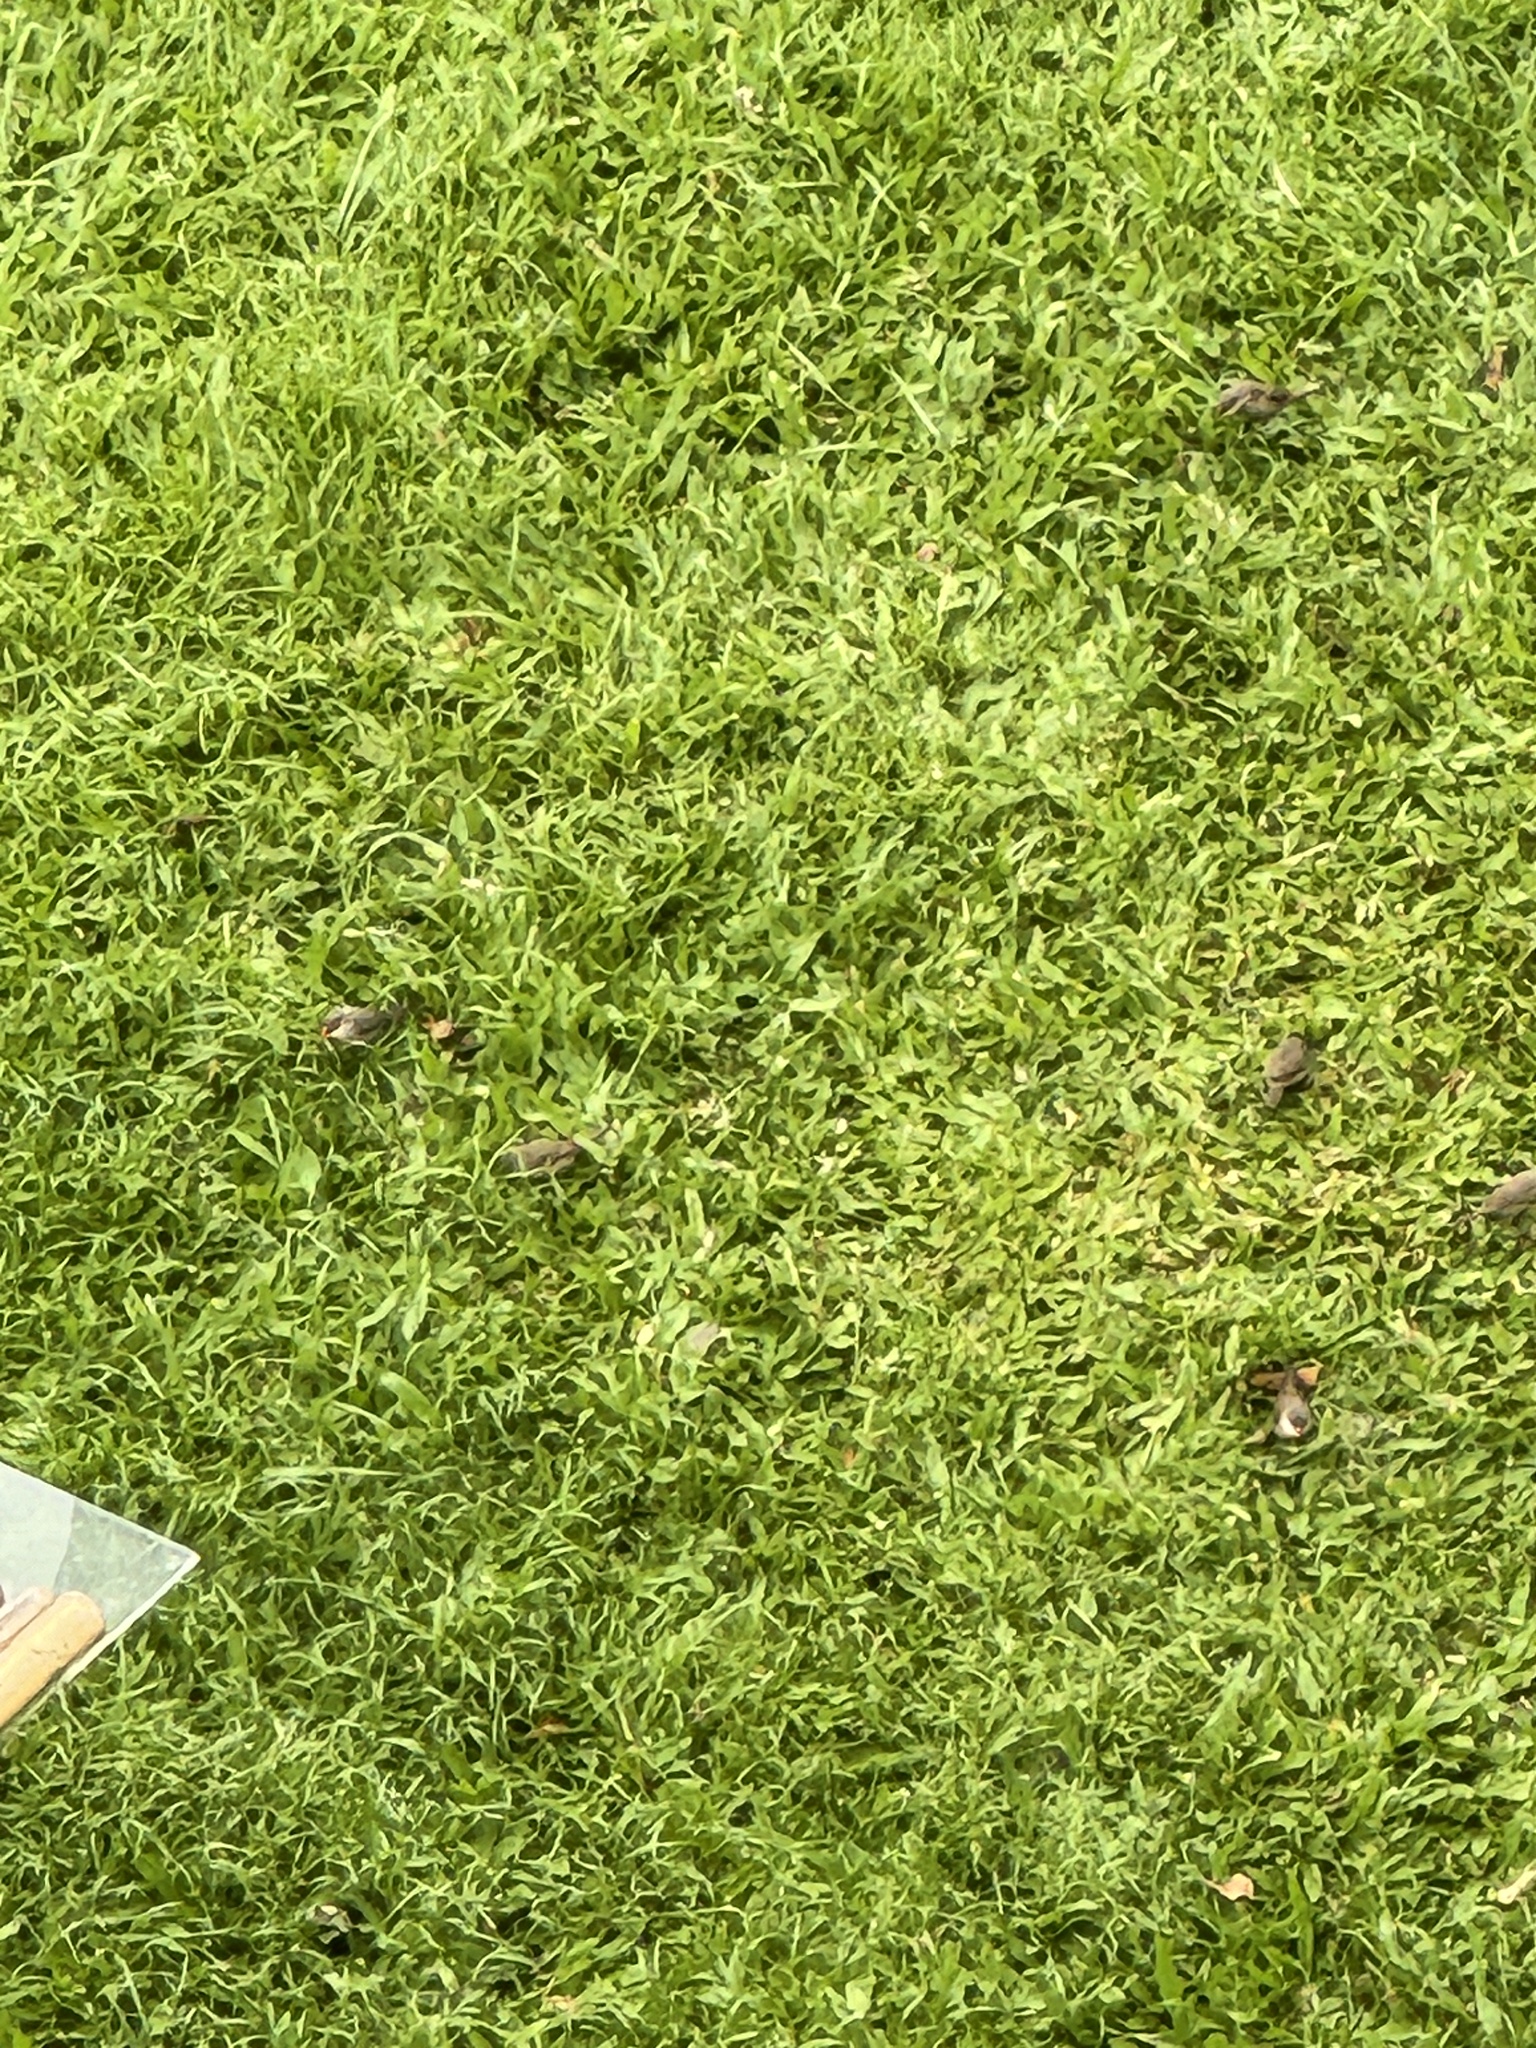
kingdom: Animalia
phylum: Chordata
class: Aves
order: Passeriformes
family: Estrildidae
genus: Estrilda
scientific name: Estrilda astrild
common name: Common waxbill
